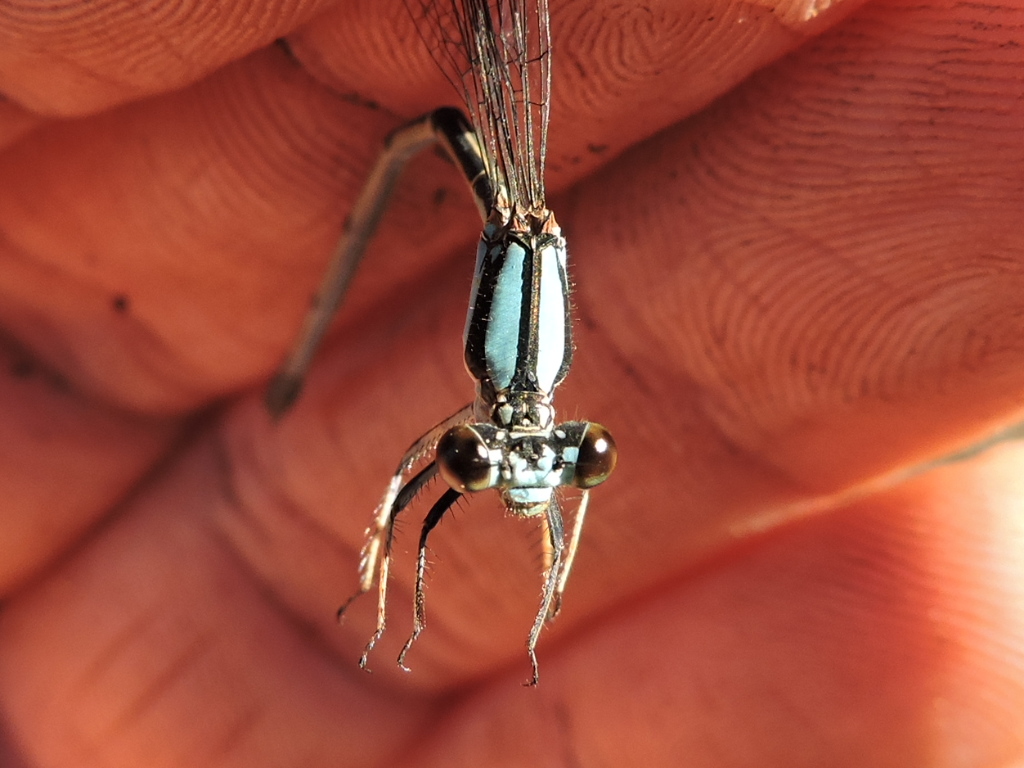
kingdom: Animalia
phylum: Arthropoda
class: Insecta
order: Odonata
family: Coenagrionidae
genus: Argia
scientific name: Argia tibialis
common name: Blue-tipped dancer
